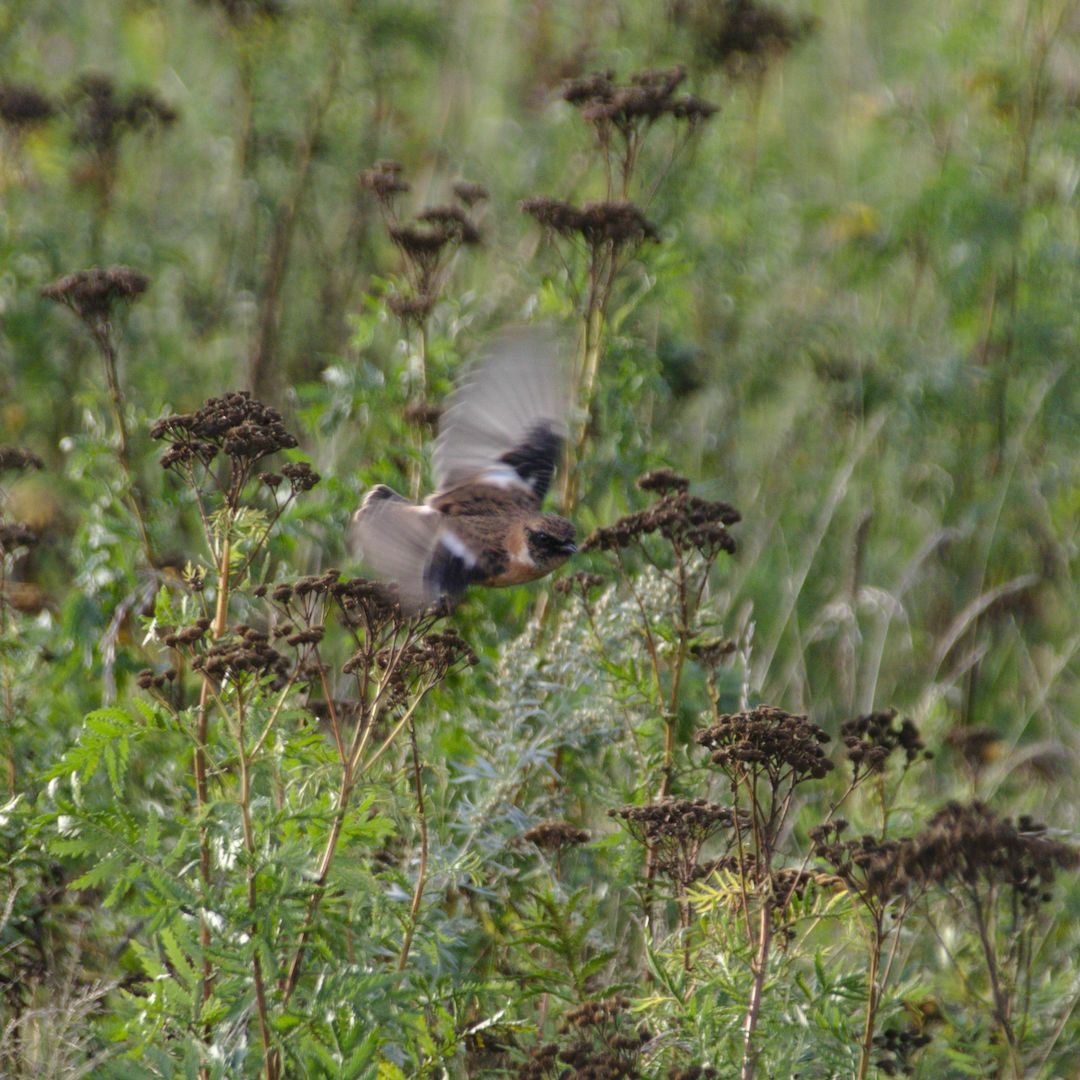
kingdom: Animalia
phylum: Chordata
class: Aves
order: Passeriformes
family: Muscicapidae
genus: Saxicola
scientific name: Saxicola maurus
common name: Siberian stonechat
